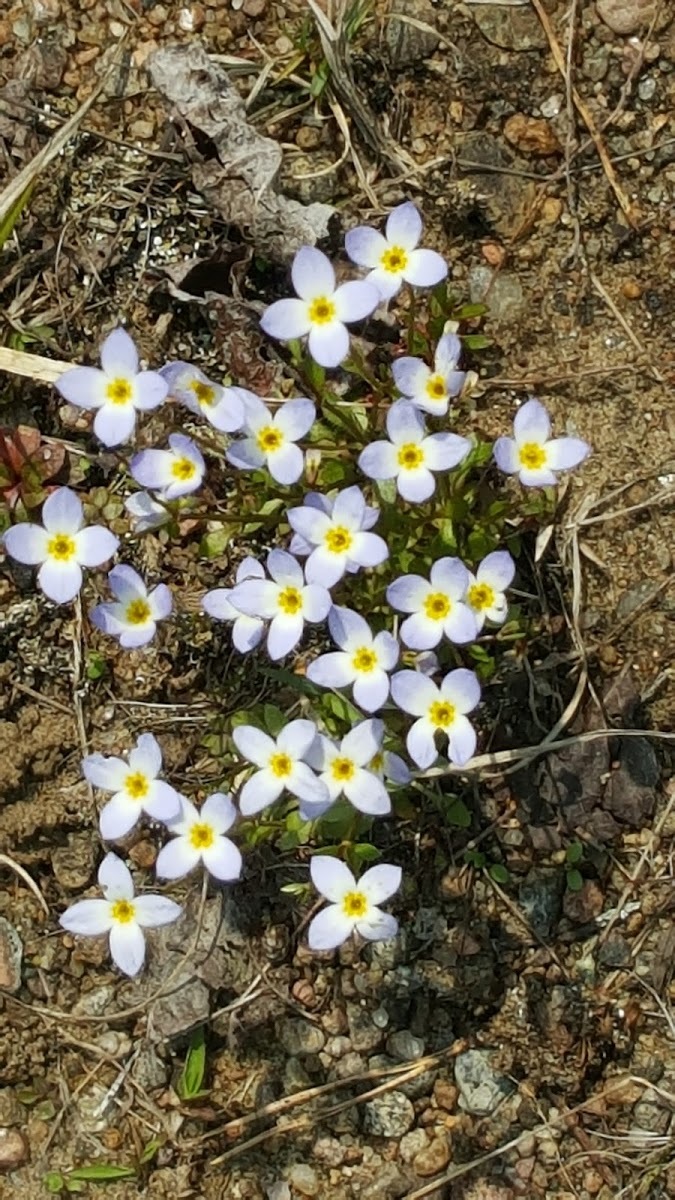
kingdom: Plantae
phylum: Tracheophyta
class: Magnoliopsida
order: Gentianales
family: Rubiaceae
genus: Houstonia
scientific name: Houstonia caerulea
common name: Bluets
